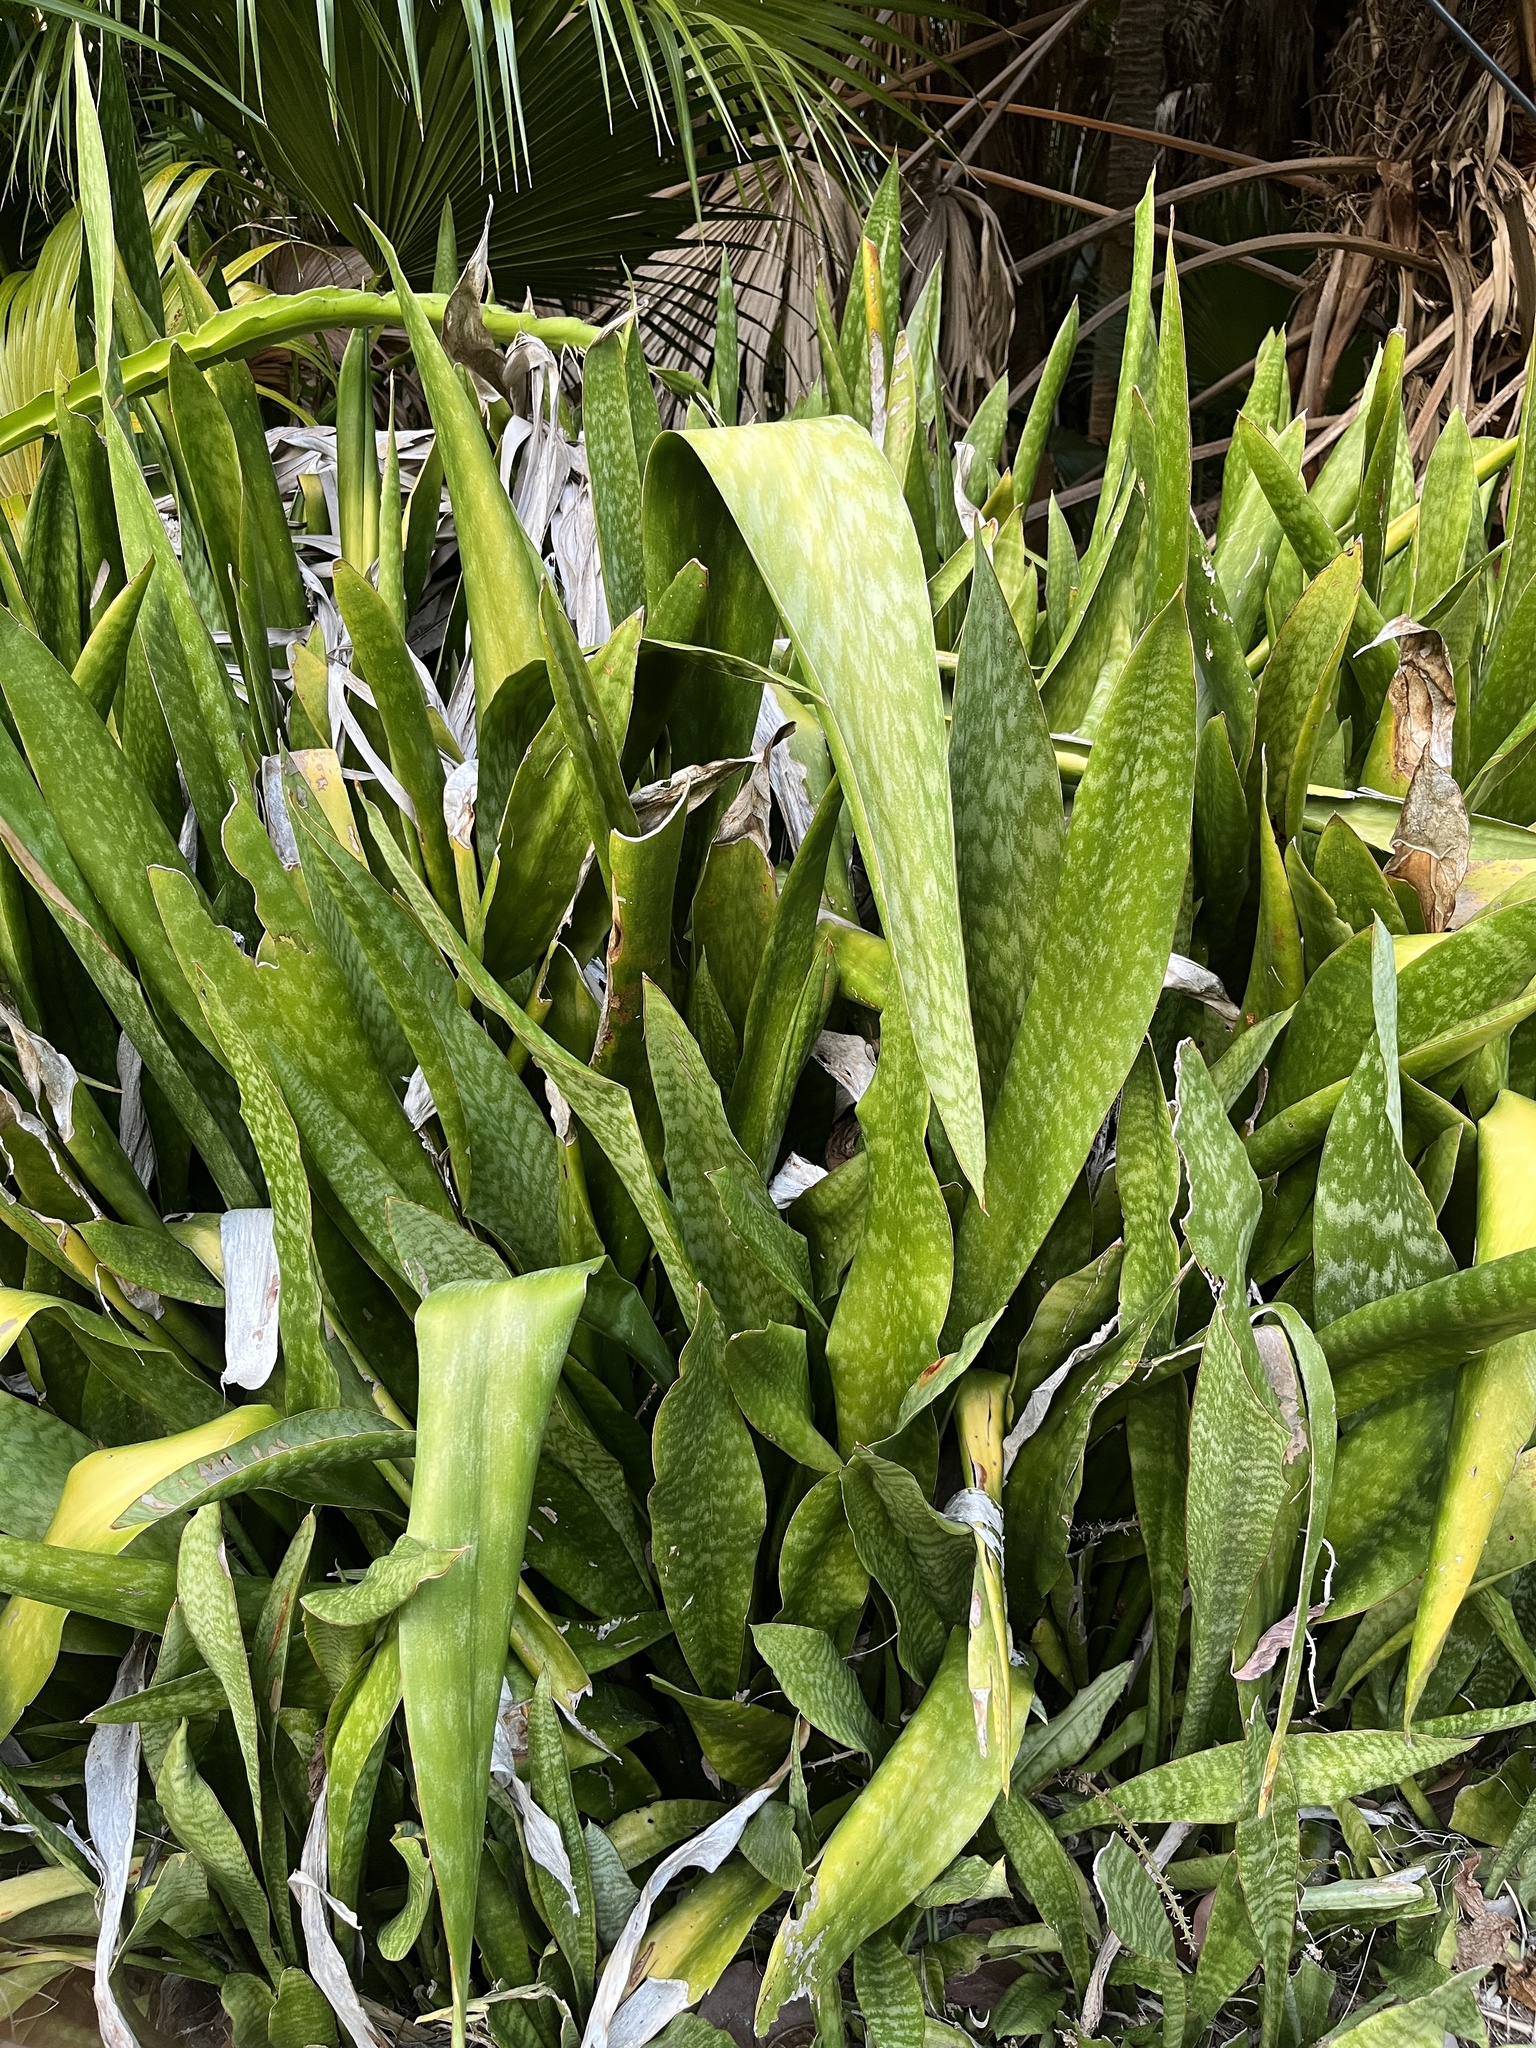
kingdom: Plantae
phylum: Tracheophyta
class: Liliopsida
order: Asparagales
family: Asparagaceae
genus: Dracaena
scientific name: Dracaena hyacinthoides
